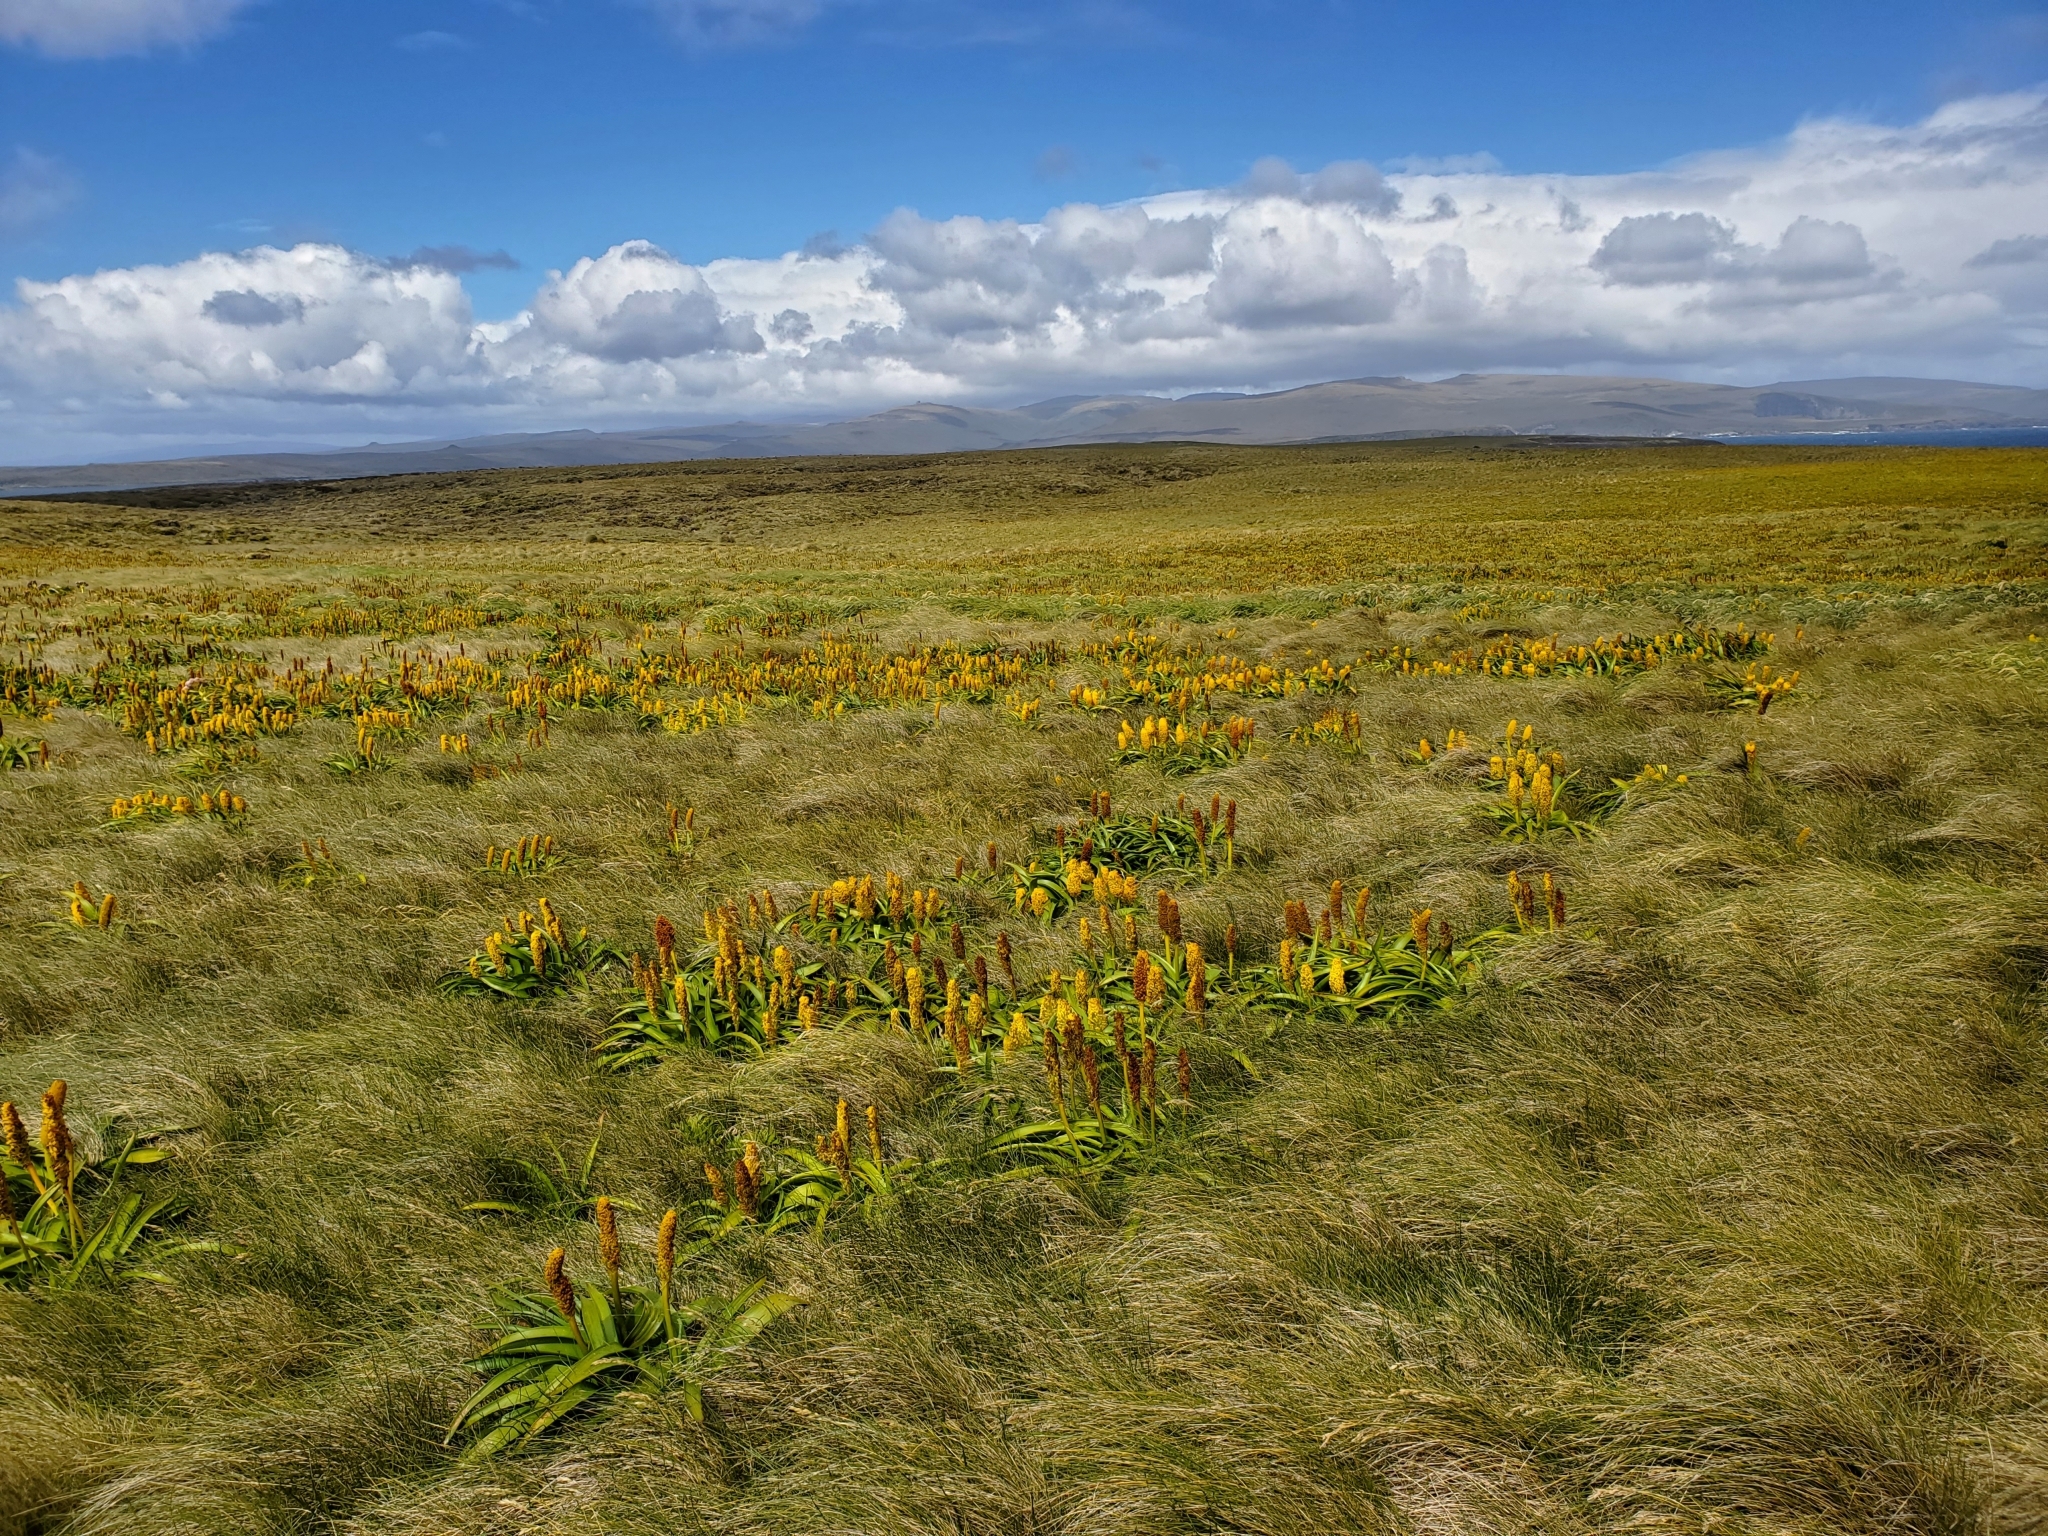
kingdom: Plantae
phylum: Tracheophyta
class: Liliopsida
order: Asparagales
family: Asphodelaceae
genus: Bulbinella
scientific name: Bulbinella rossii
